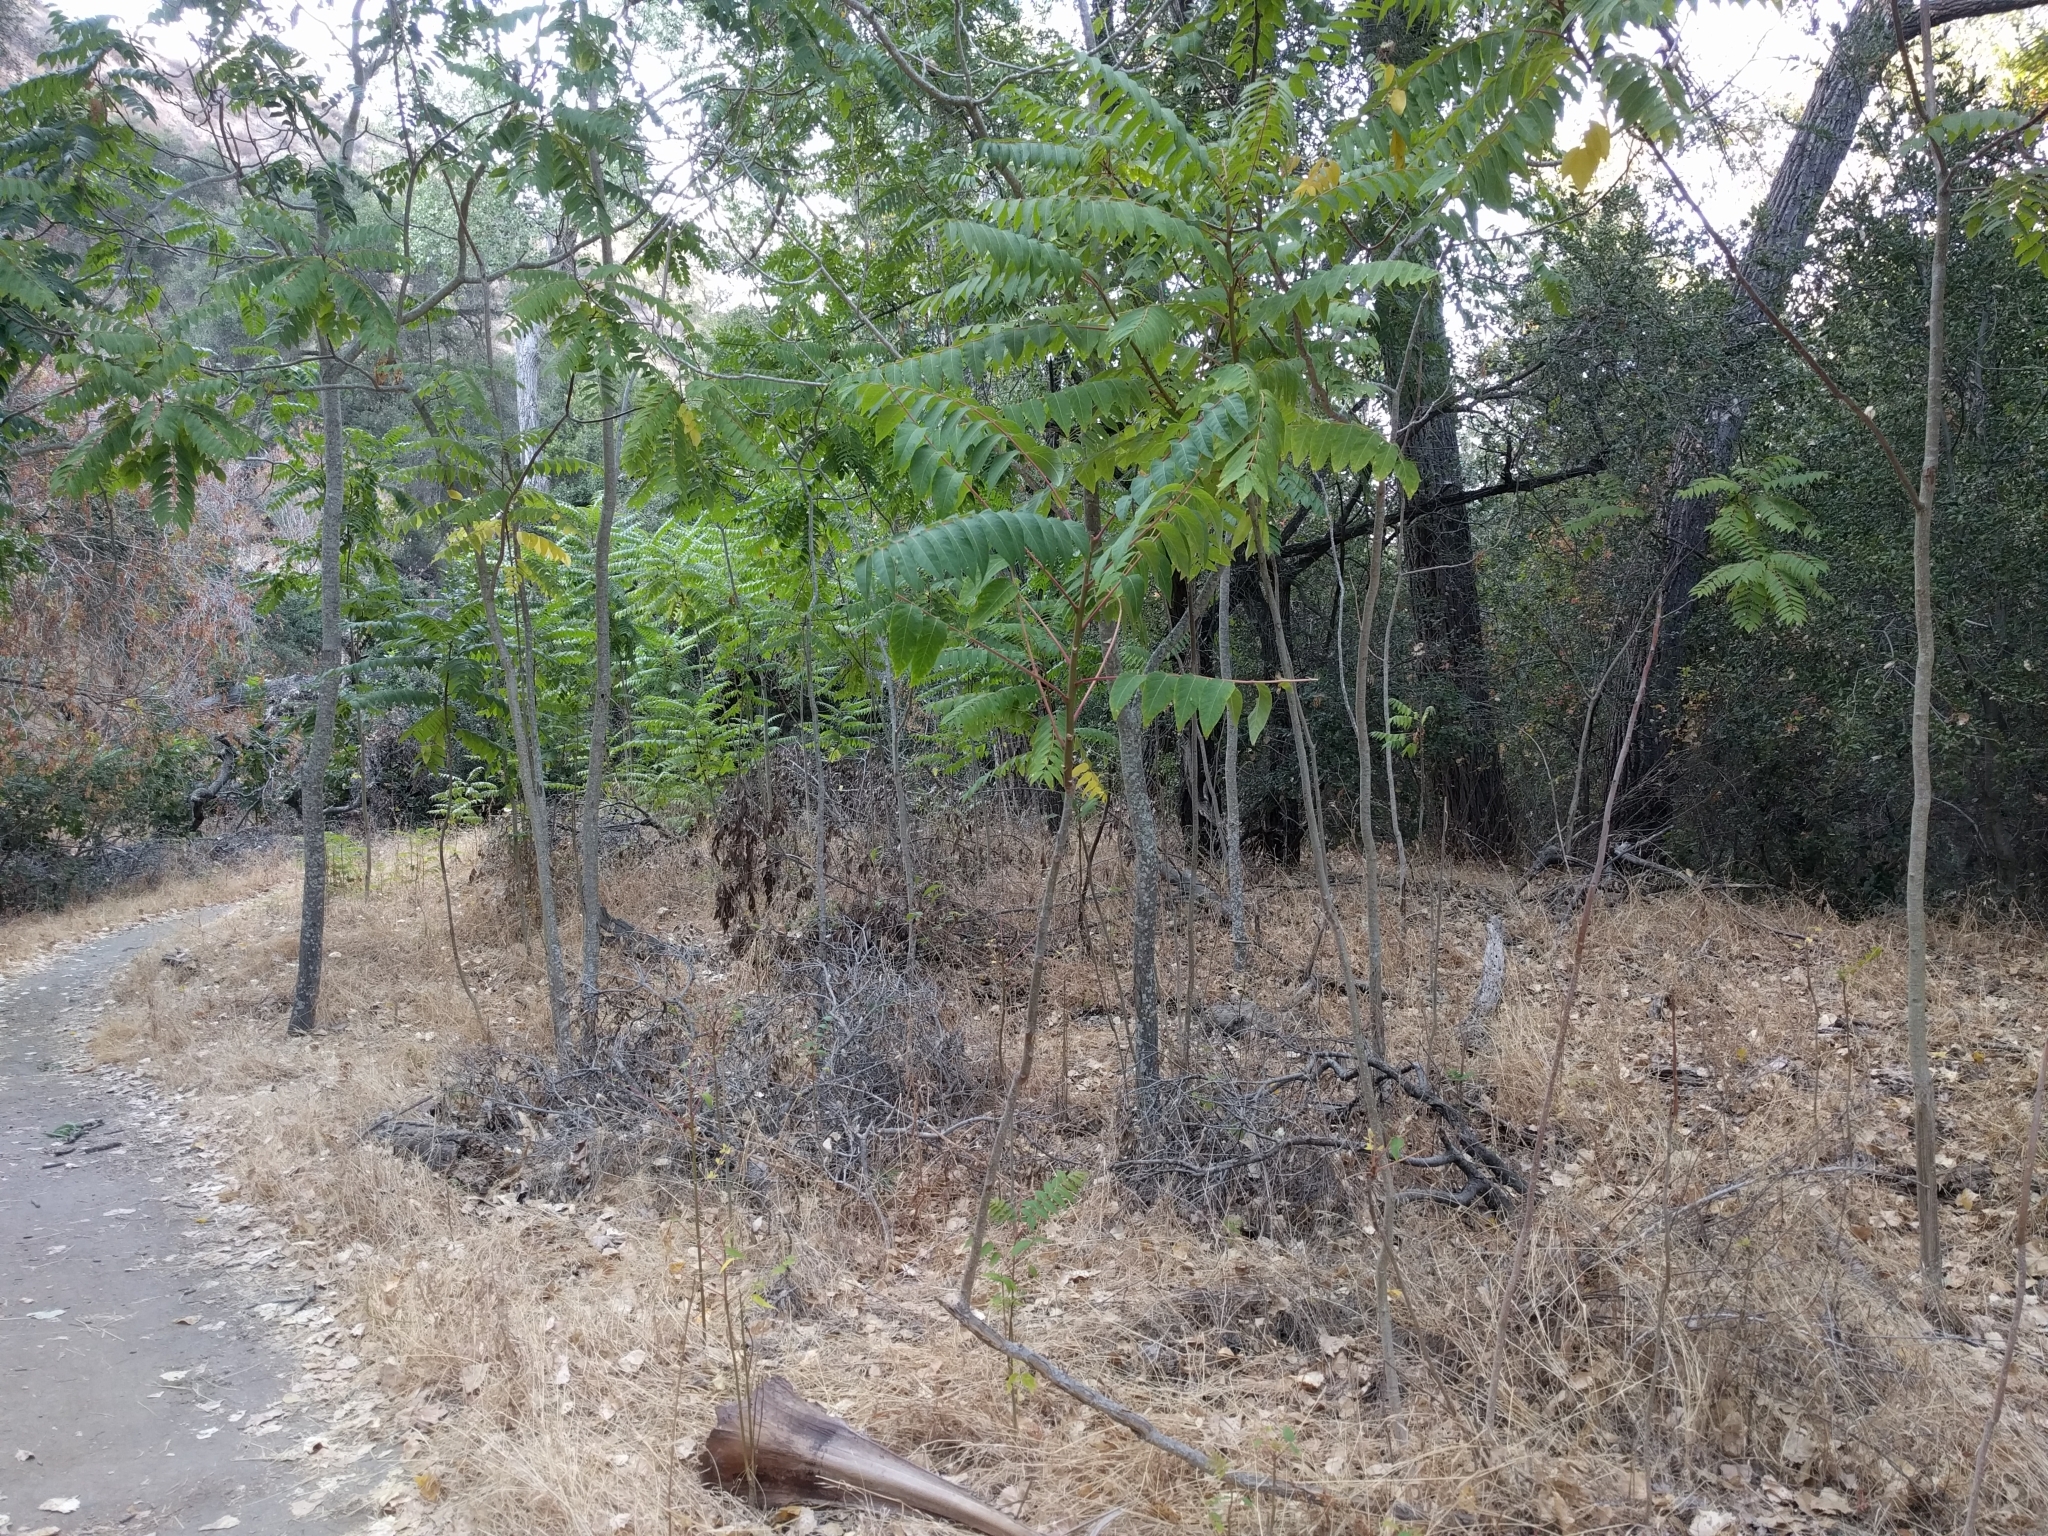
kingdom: Plantae
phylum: Tracheophyta
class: Magnoliopsida
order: Sapindales
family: Simaroubaceae
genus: Ailanthus
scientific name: Ailanthus altissima
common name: Tree-of-heaven
